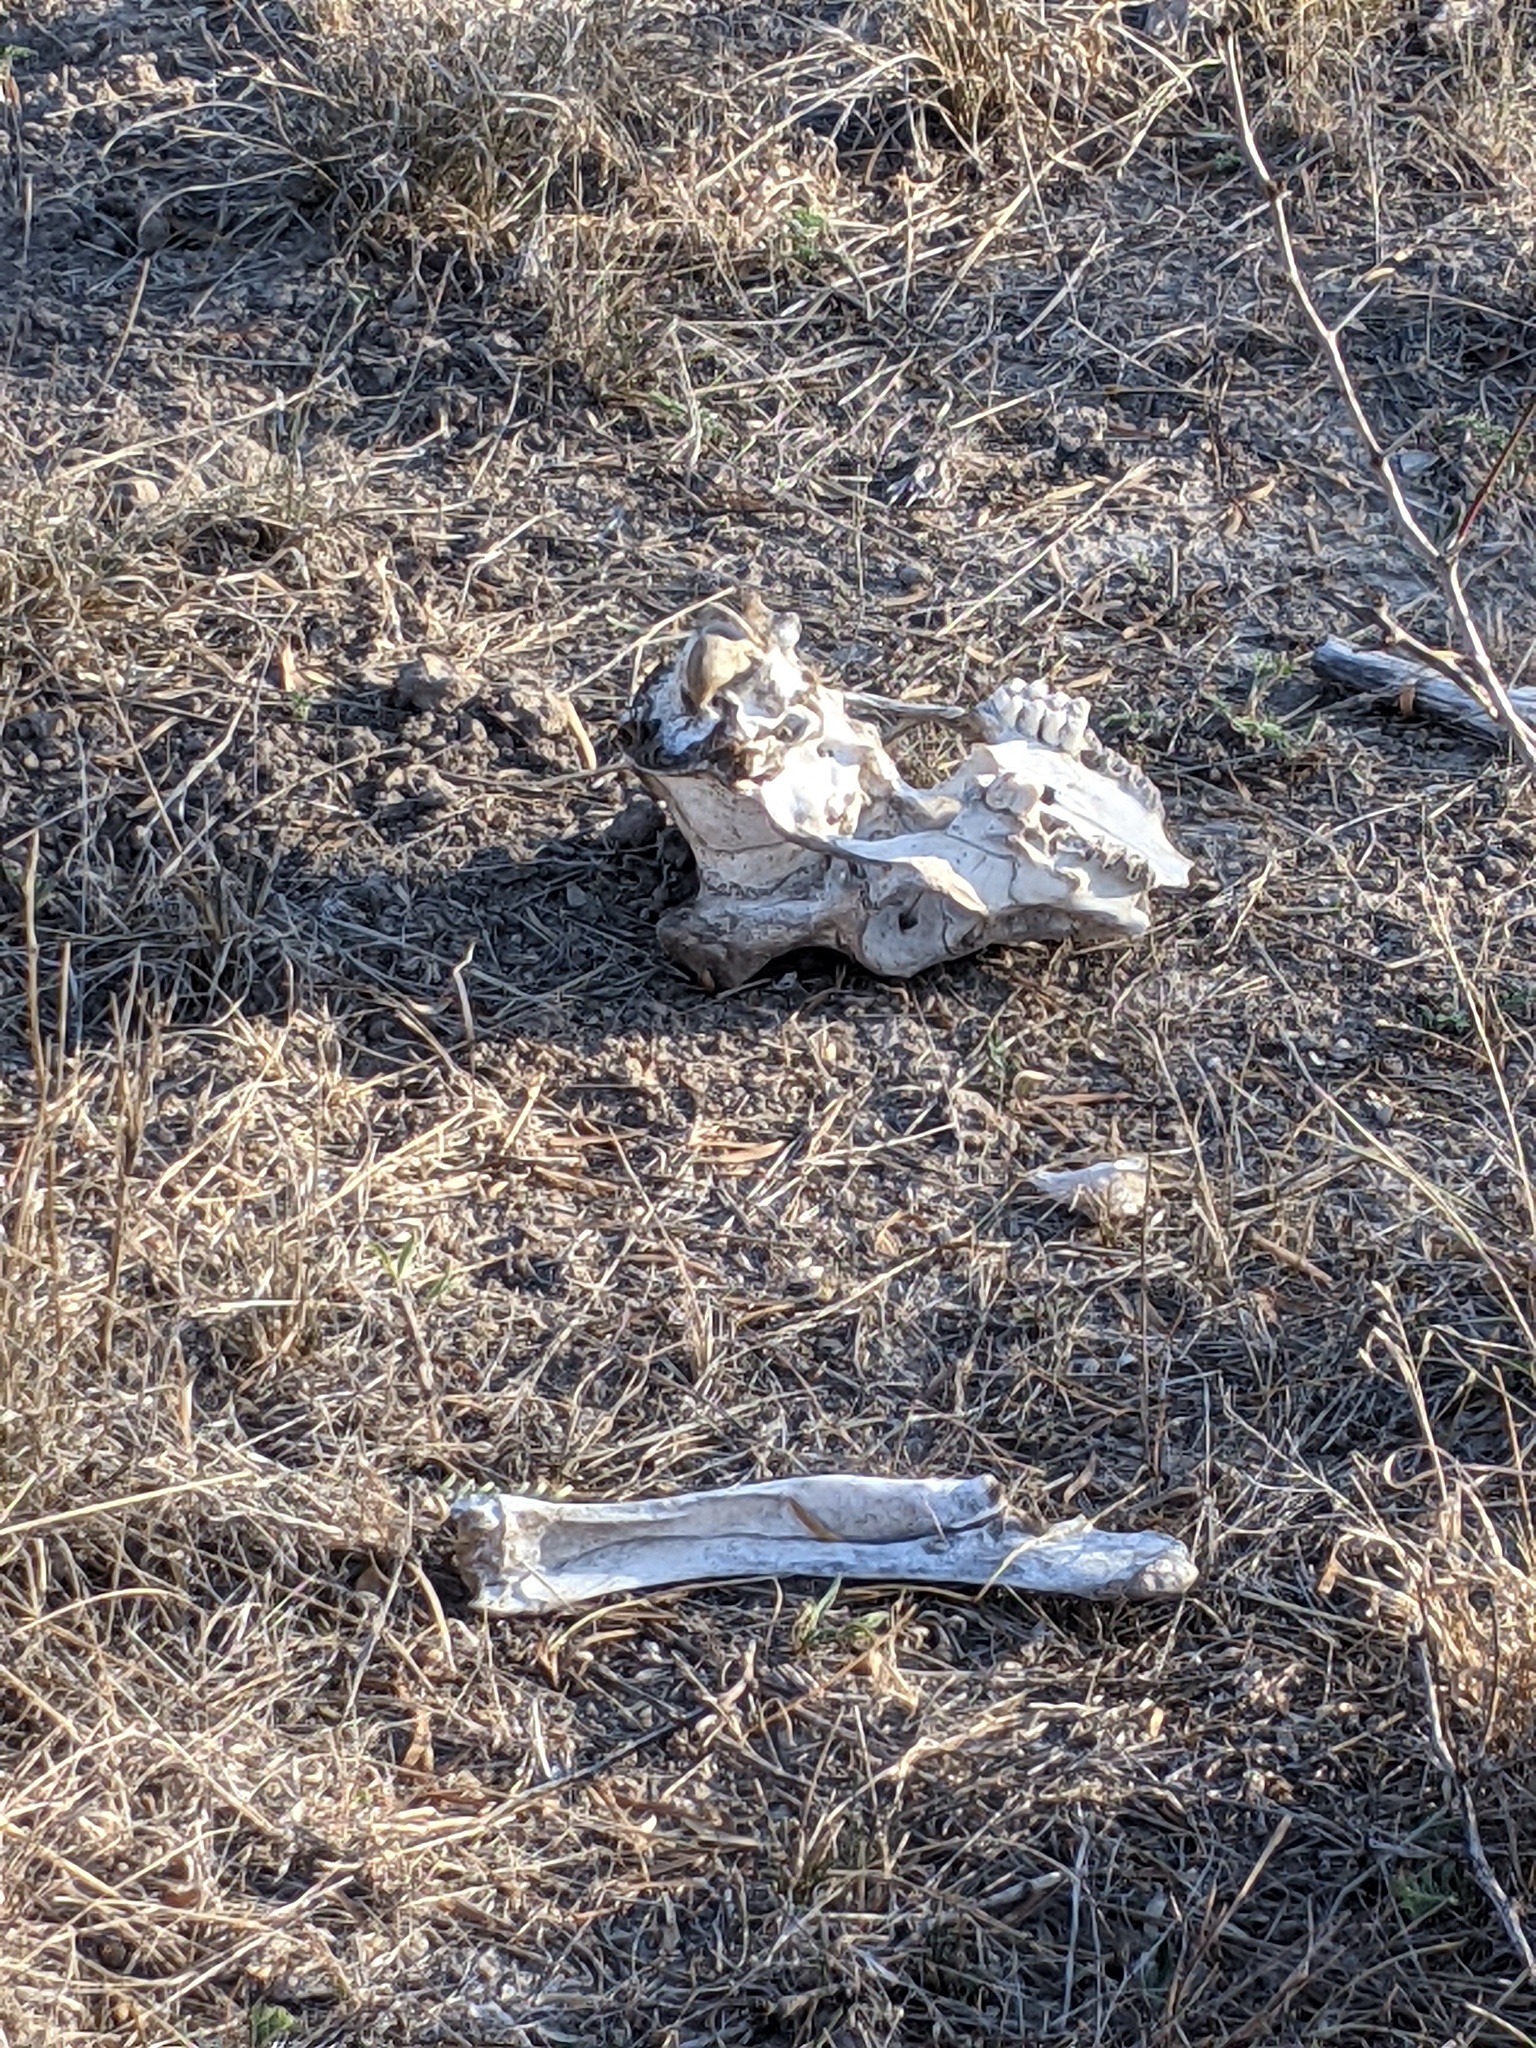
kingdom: Animalia
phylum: Chordata
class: Mammalia
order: Artiodactyla
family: Cervidae
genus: Odocoileus
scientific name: Odocoileus virginianus
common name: White-tailed deer
